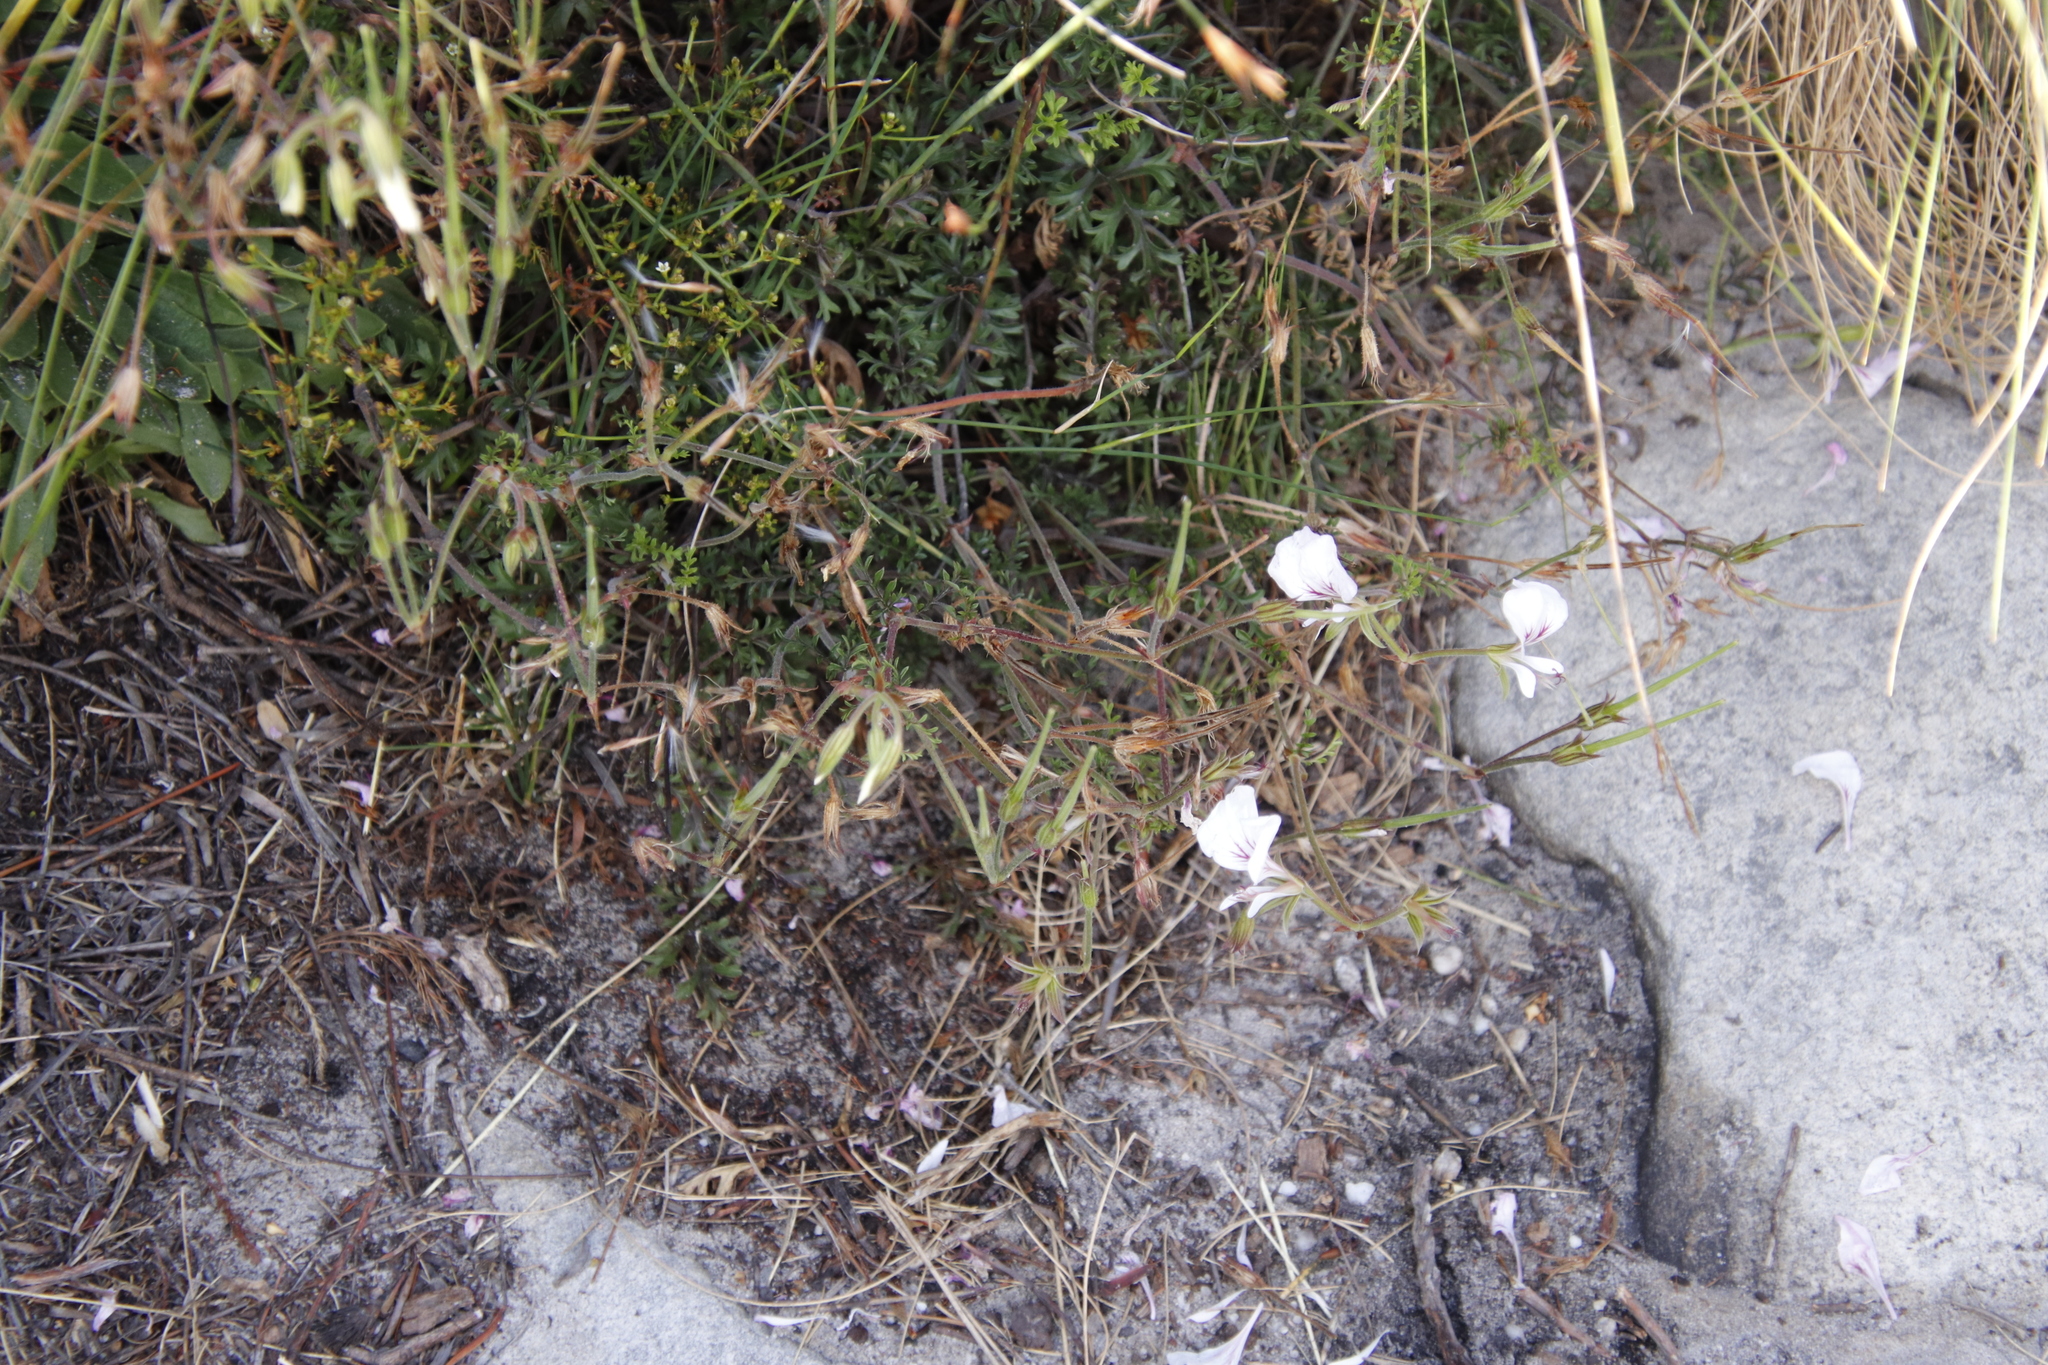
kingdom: Plantae
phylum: Tracheophyta
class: Magnoliopsida
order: Geraniales
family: Geraniaceae
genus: Pelargonium
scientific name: Pelargonium longicaule
